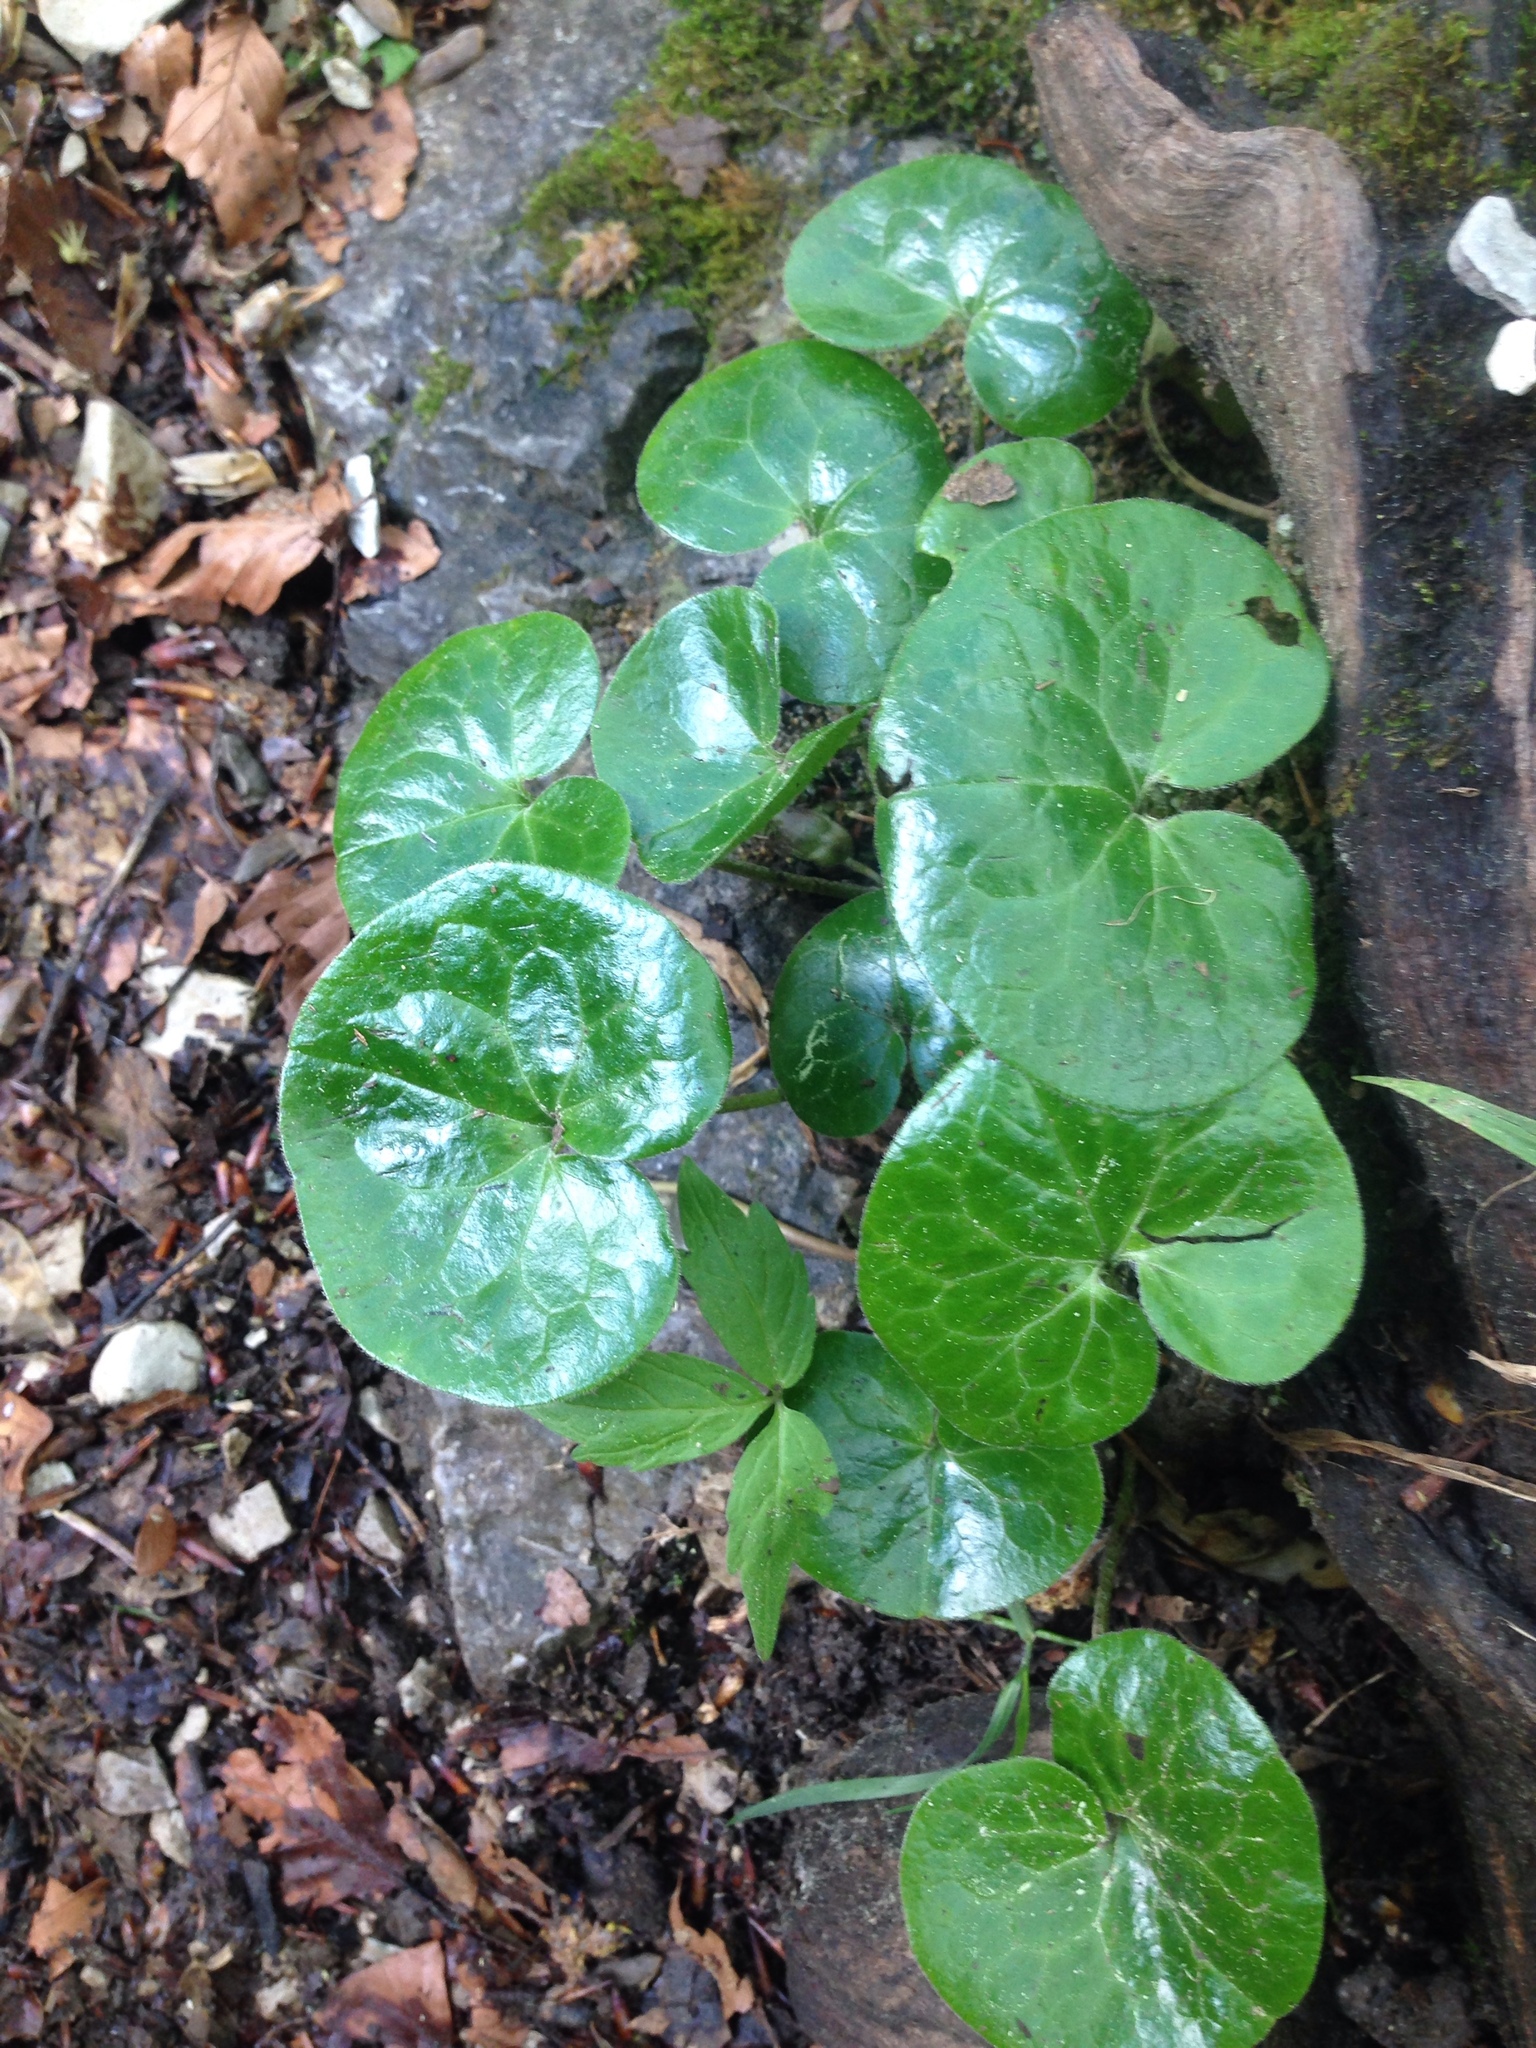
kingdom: Plantae
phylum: Tracheophyta
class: Magnoliopsida
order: Piperales
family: Aristolochiaceae
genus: Asarum
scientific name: Asarum europaeum
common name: Asarabacca
